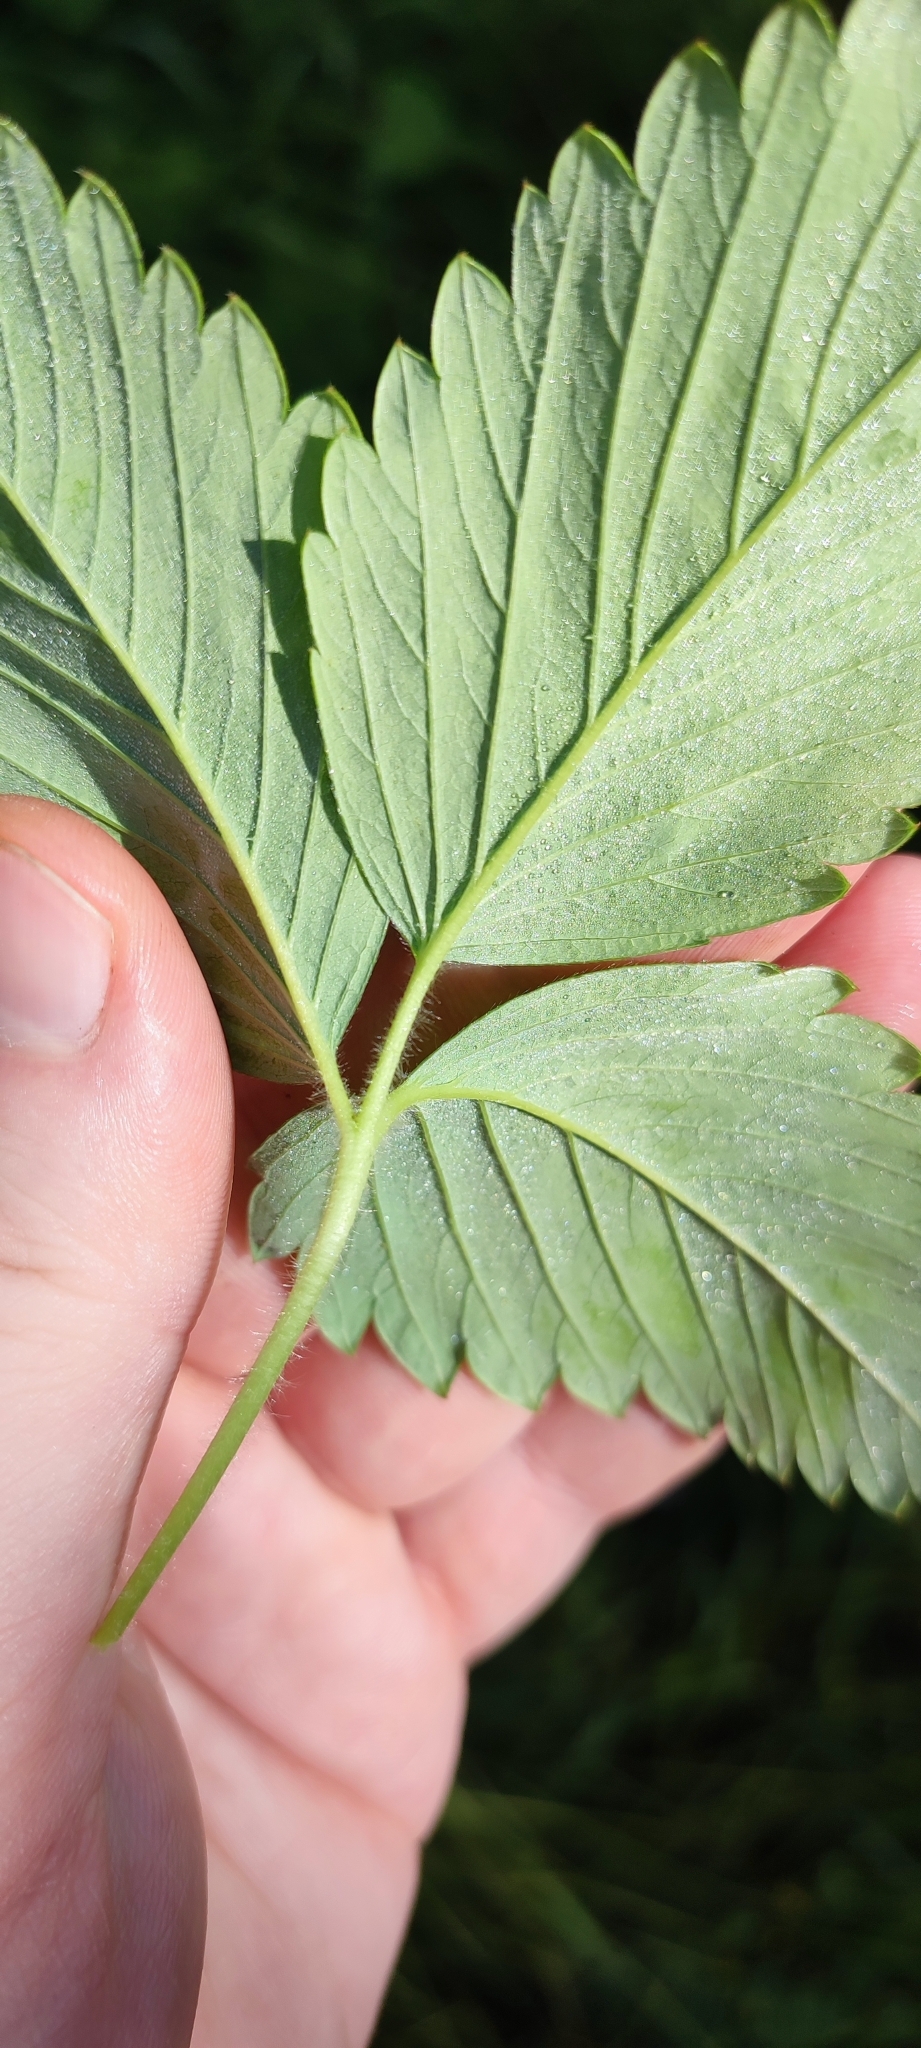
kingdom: Plantae
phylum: Tracheophyta
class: Magnoliopsida
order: Rosales
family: Rosaceae
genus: Fragaria
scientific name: Fragaria moschata
